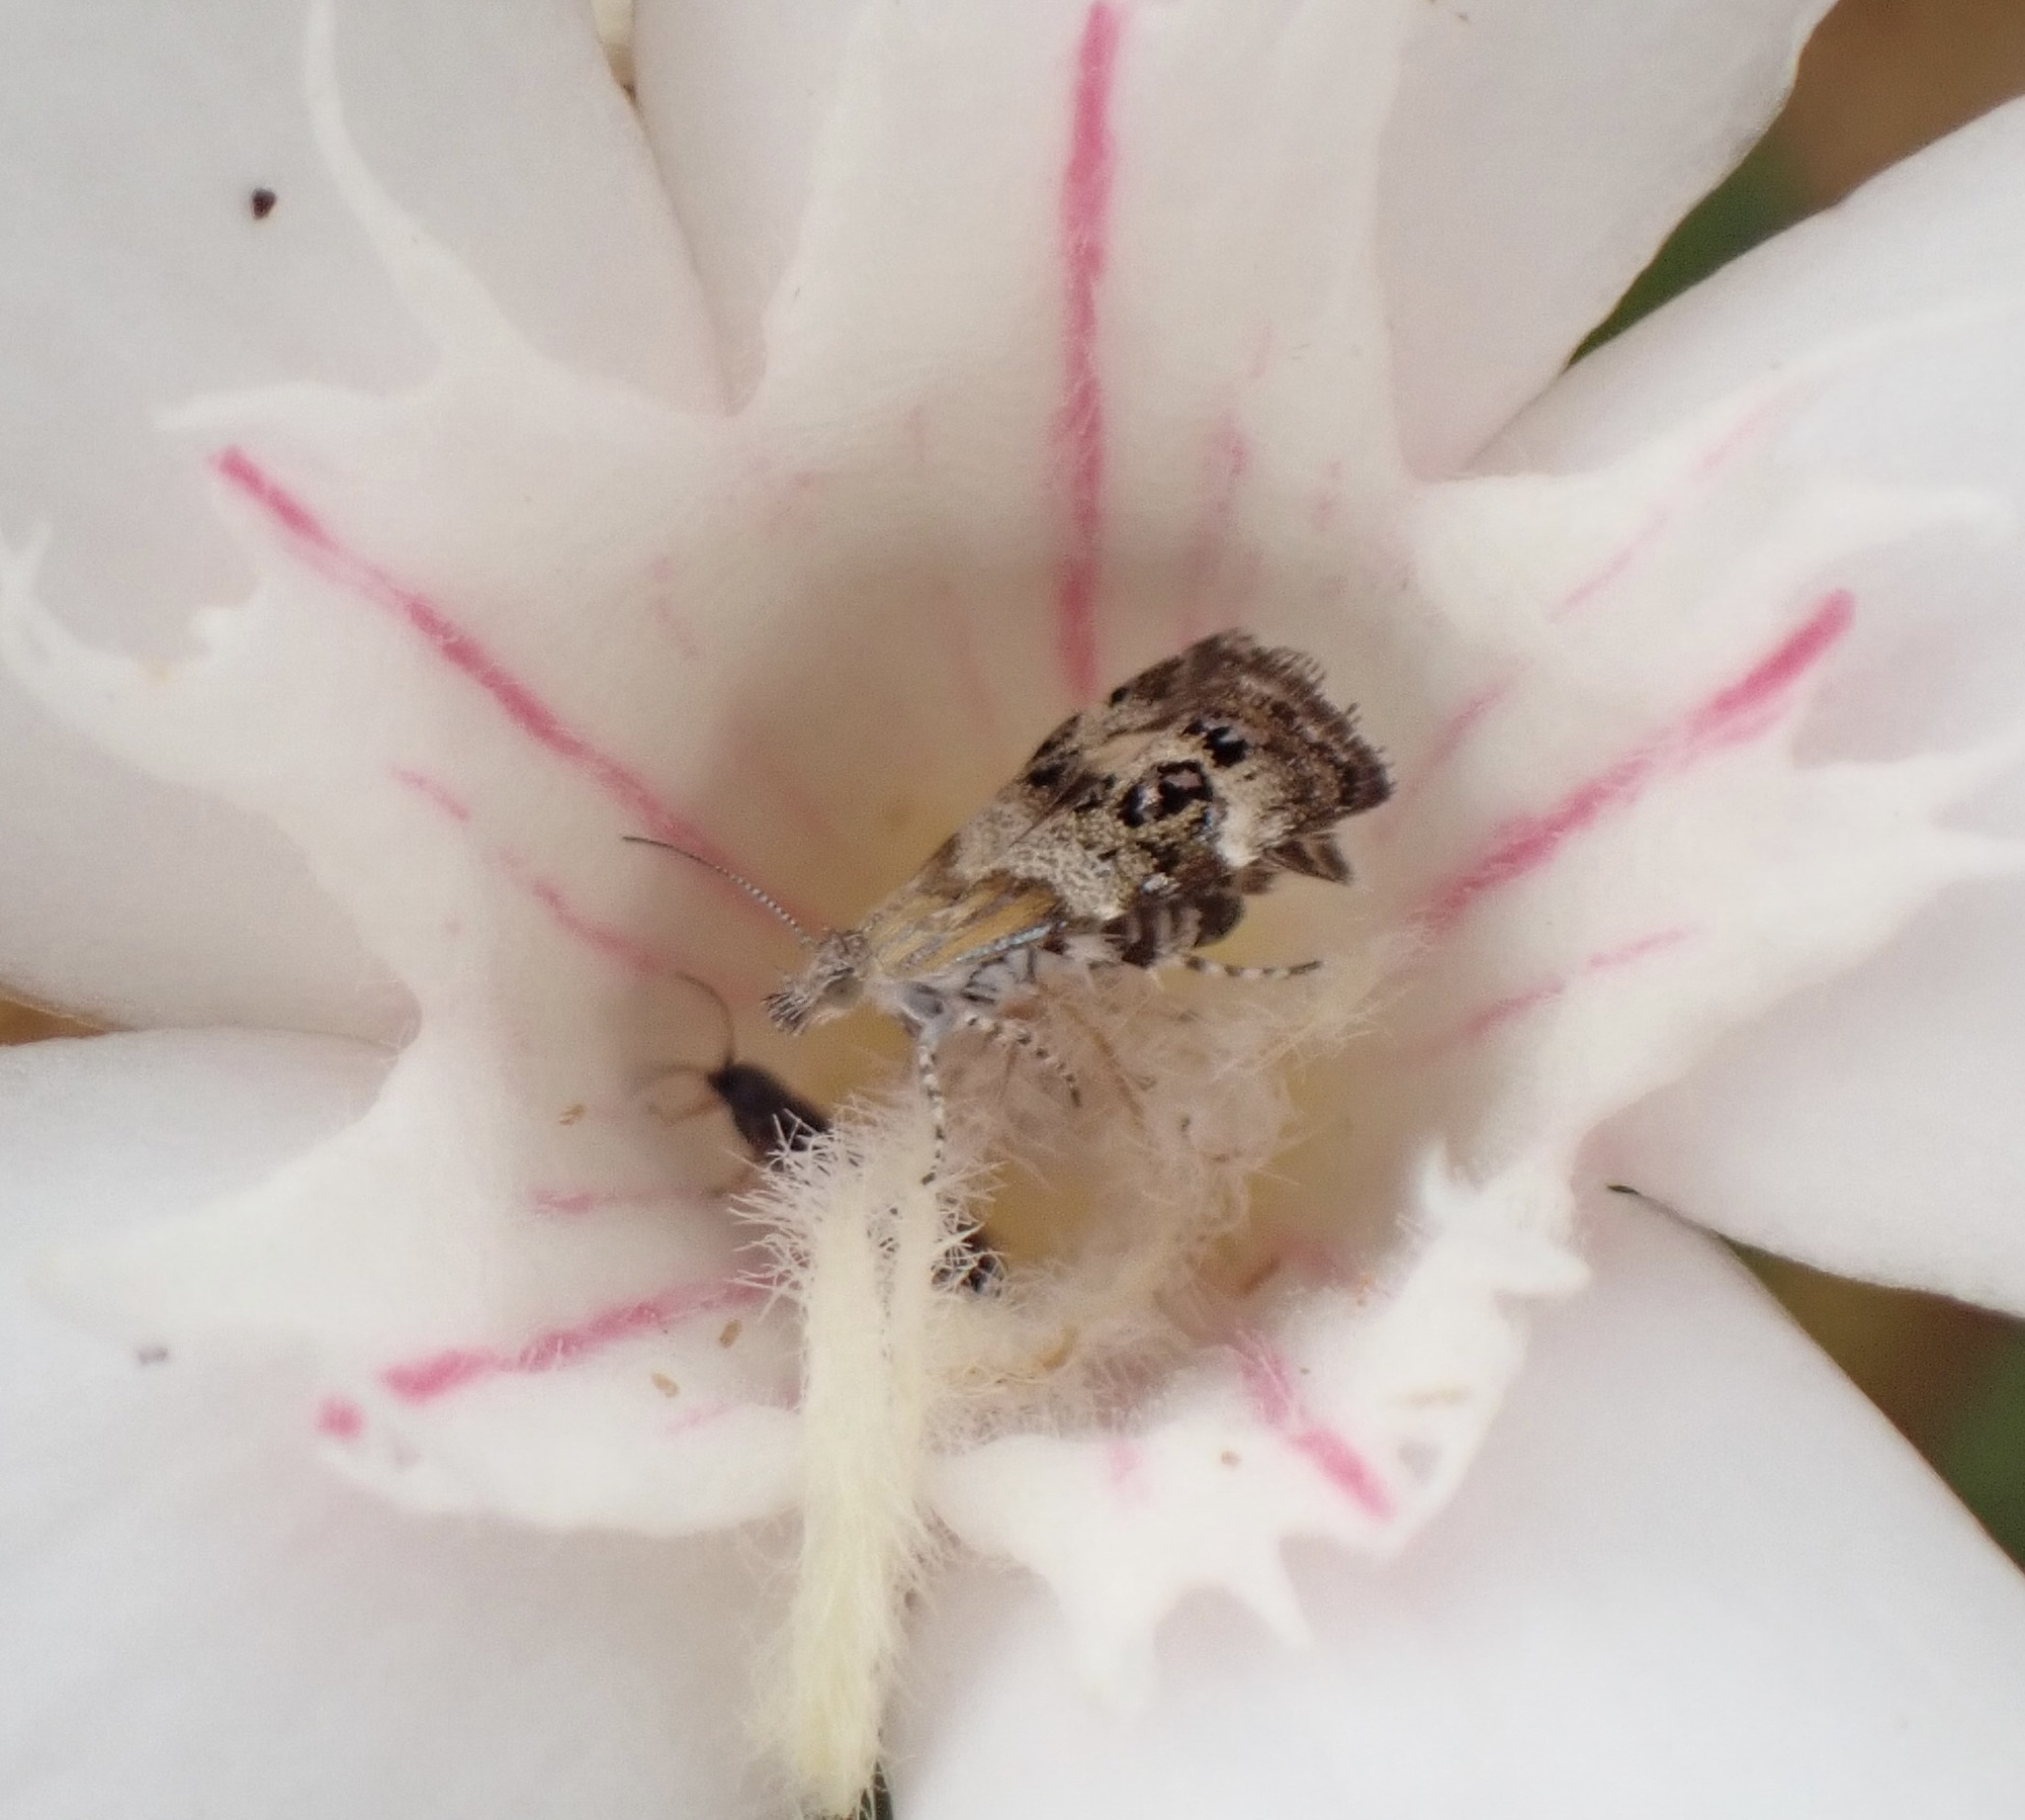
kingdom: Animalia
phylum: Arthropoda
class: Insecta
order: Lepidoptera
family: Choreutidae
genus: Tebenna
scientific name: Tebenna micalis
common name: Vagrant twitcher
